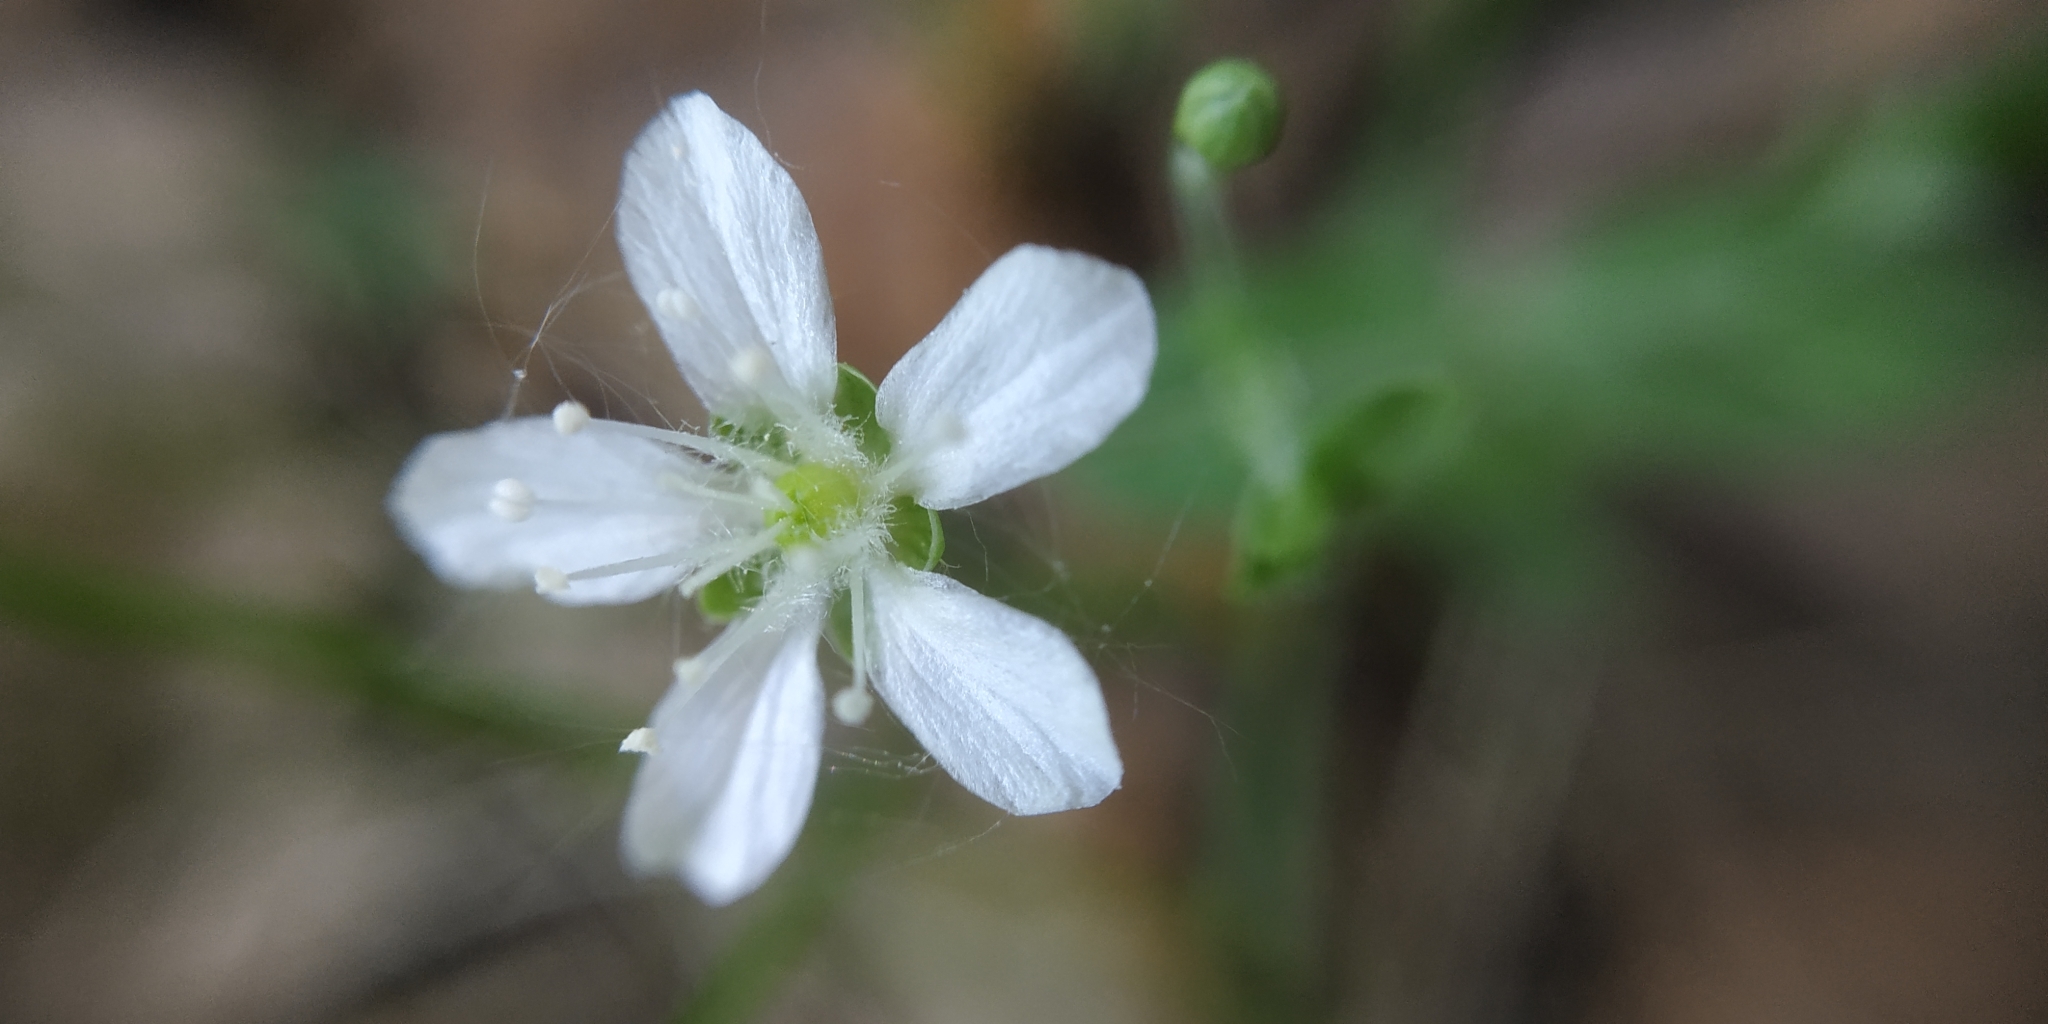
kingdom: Plantae
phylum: Tracheophyta
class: Magnoliopsida
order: Caryophyllales
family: Caryophyllaceae
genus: Moehringia
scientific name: Moehringia lateriflora
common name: Blunt-leaved sandwort
